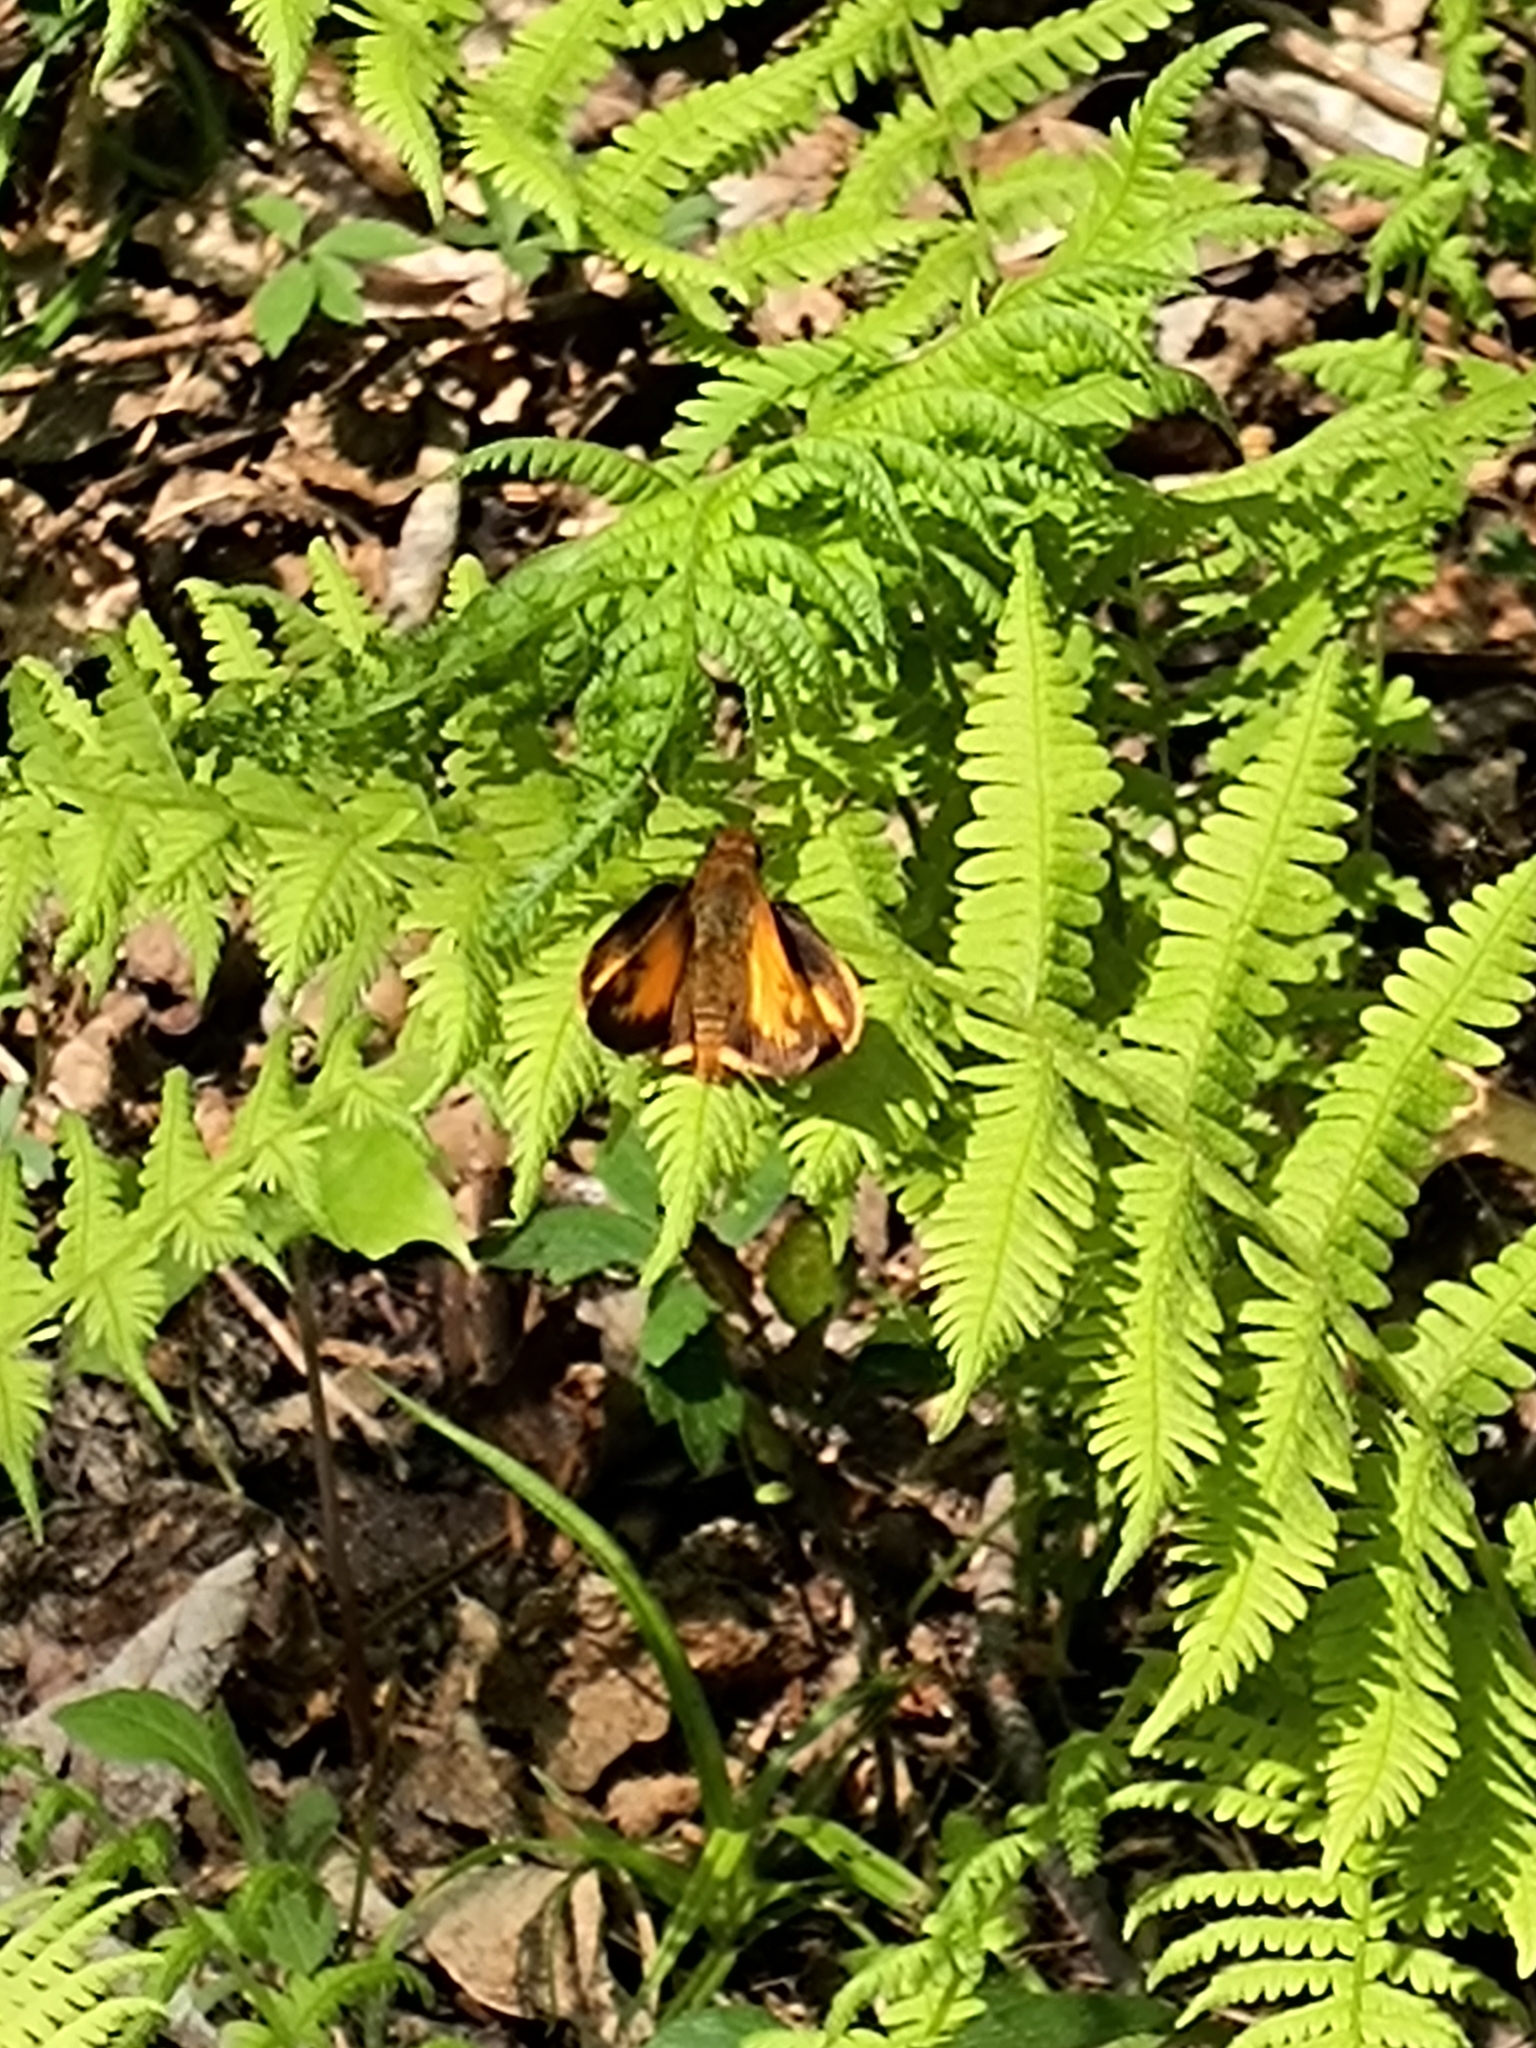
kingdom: Animalia
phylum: Arthropoda
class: Insecta
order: Lepidoptera
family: Hesperiidae
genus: Lon
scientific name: Lon zabulon
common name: Zabulon skipper
